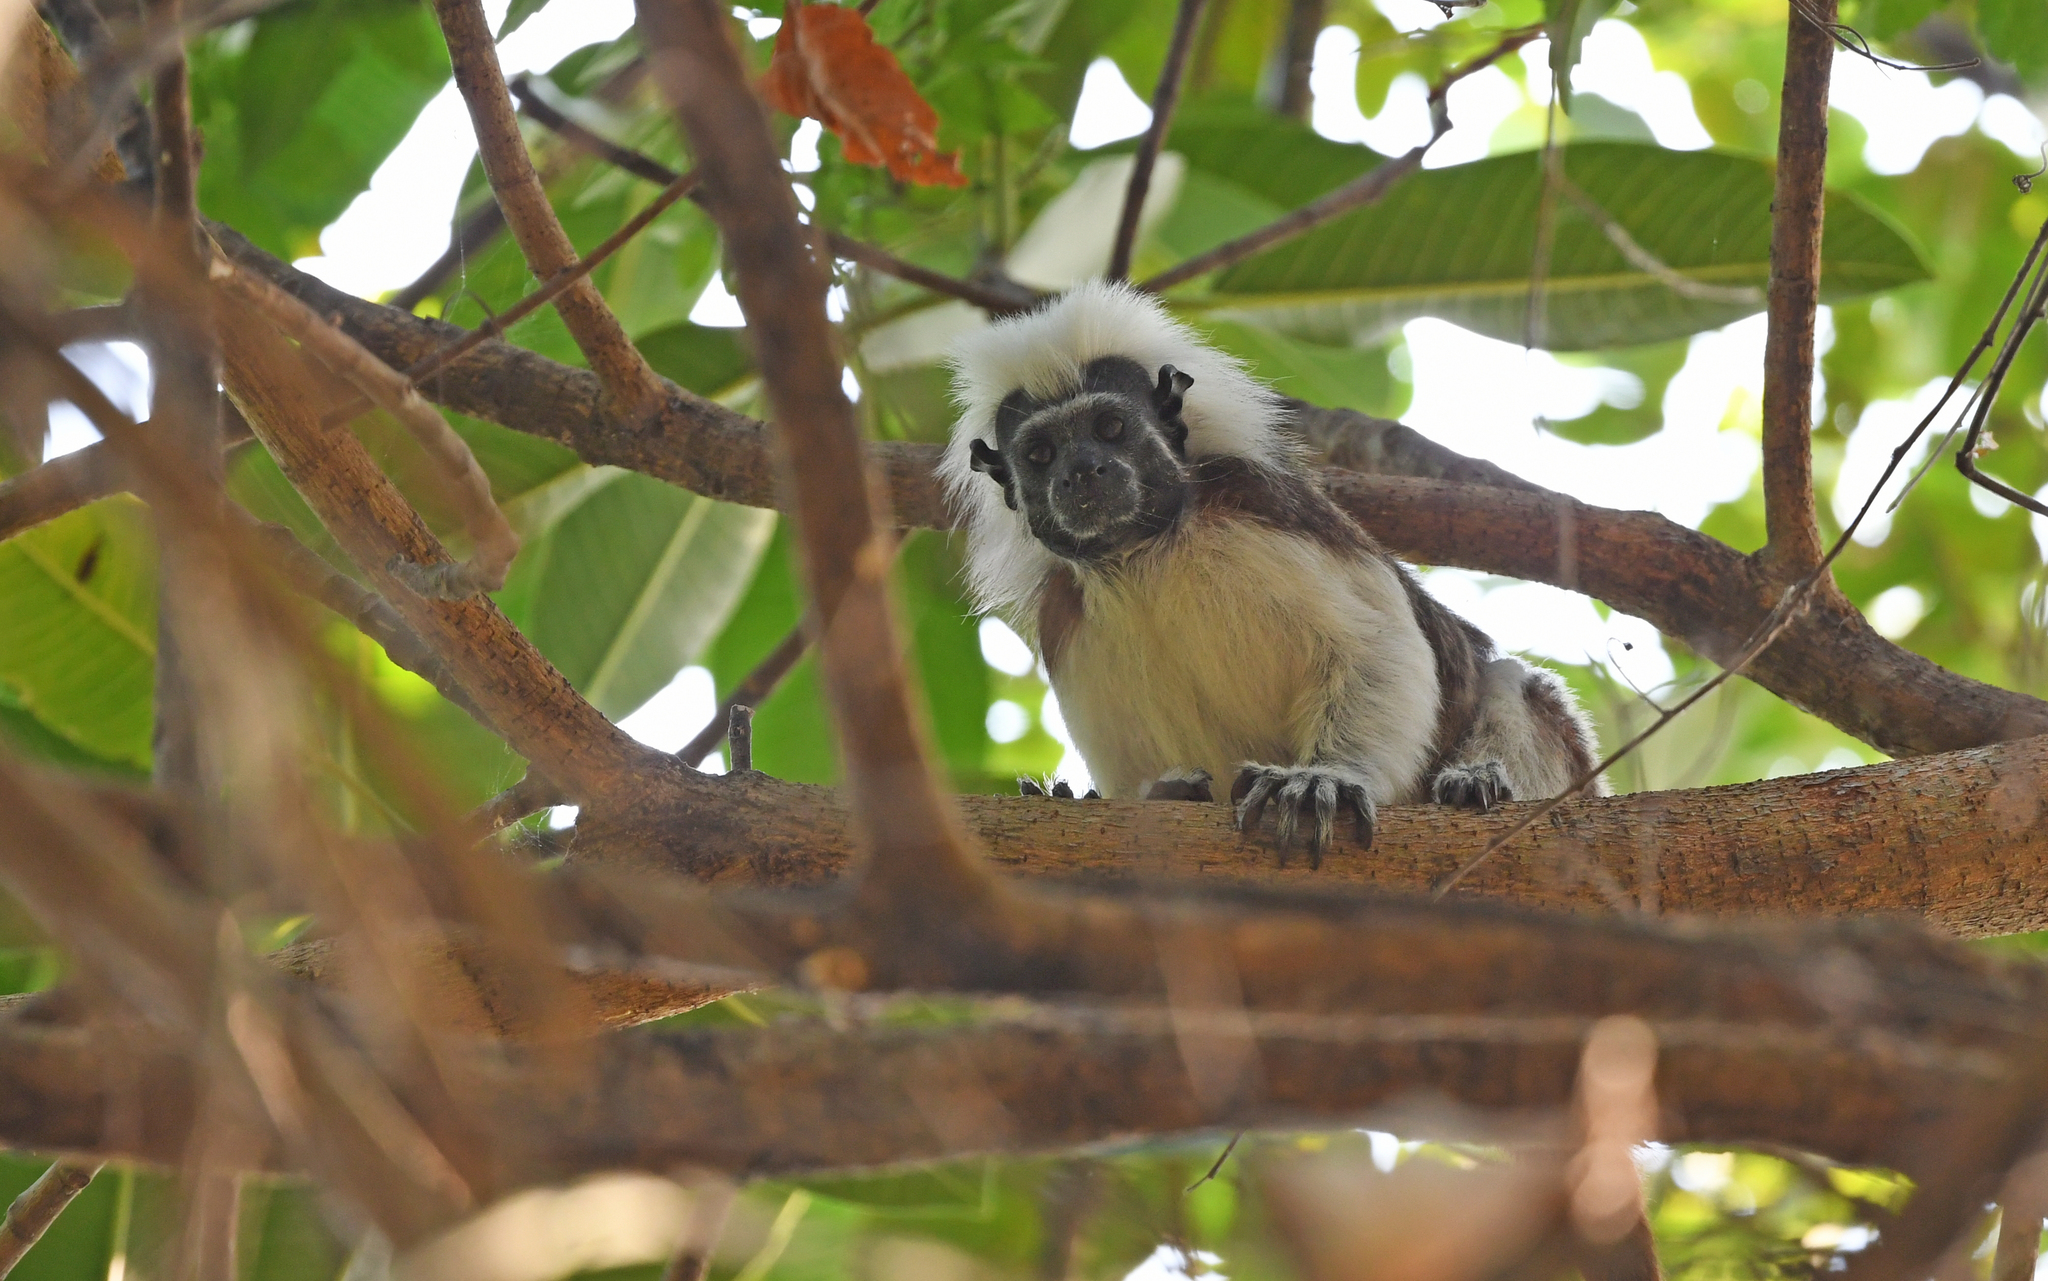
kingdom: Animalia
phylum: Chordata
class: Mammalia
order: Primates
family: Callitrichidae
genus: Saguinus
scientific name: Saguinus oedipus
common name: Cottontop tamarin
